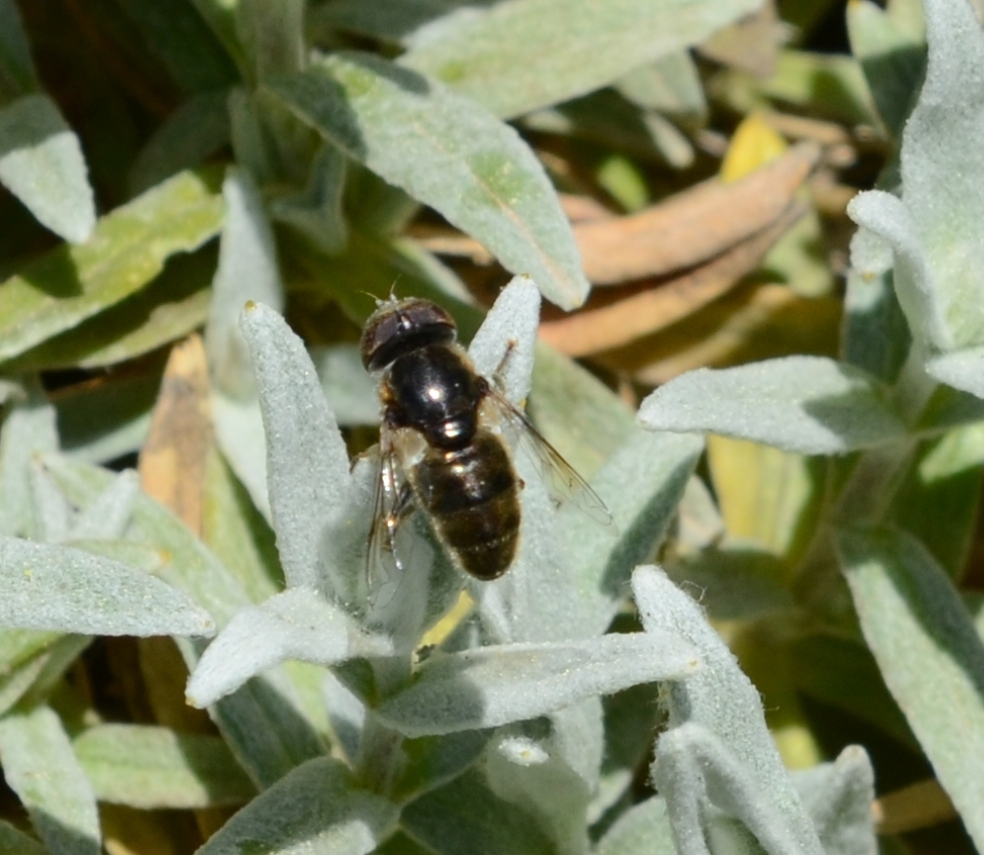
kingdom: Animalia
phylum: Arthropoda
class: Insecta
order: Diptera
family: Syrphidae
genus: Eristalinus
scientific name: Eristalinus aeneus
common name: Syrphid fly
